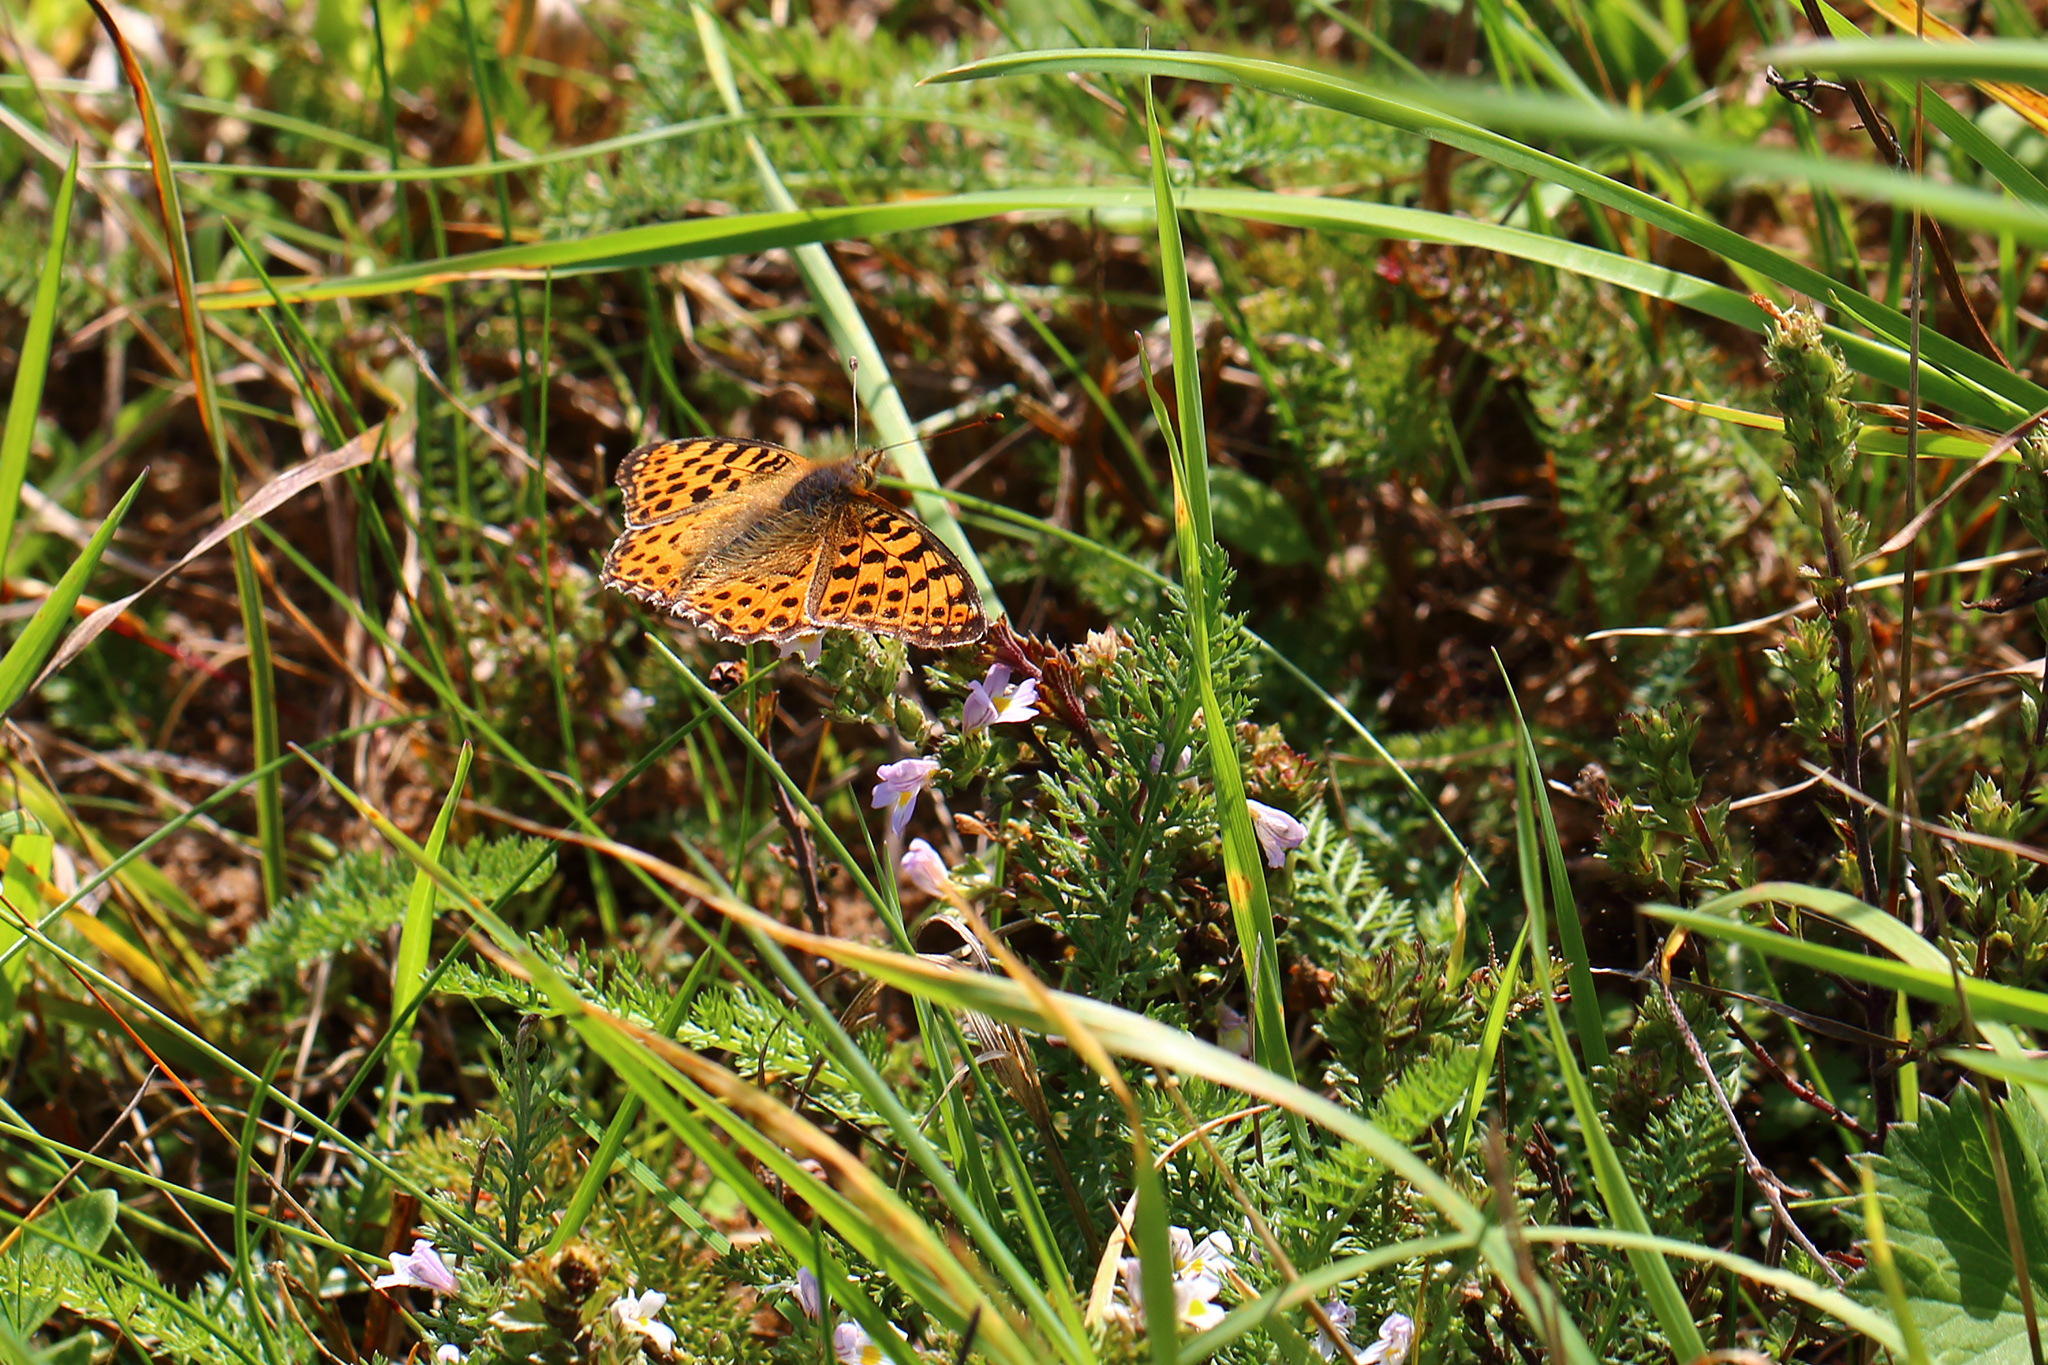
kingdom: Animalia
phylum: Arthropoda
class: Insecta
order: Lepidoptera
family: Nymphalidae
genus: Issoria
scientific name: Issoria lathonia
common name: Queen of spain fritillary
